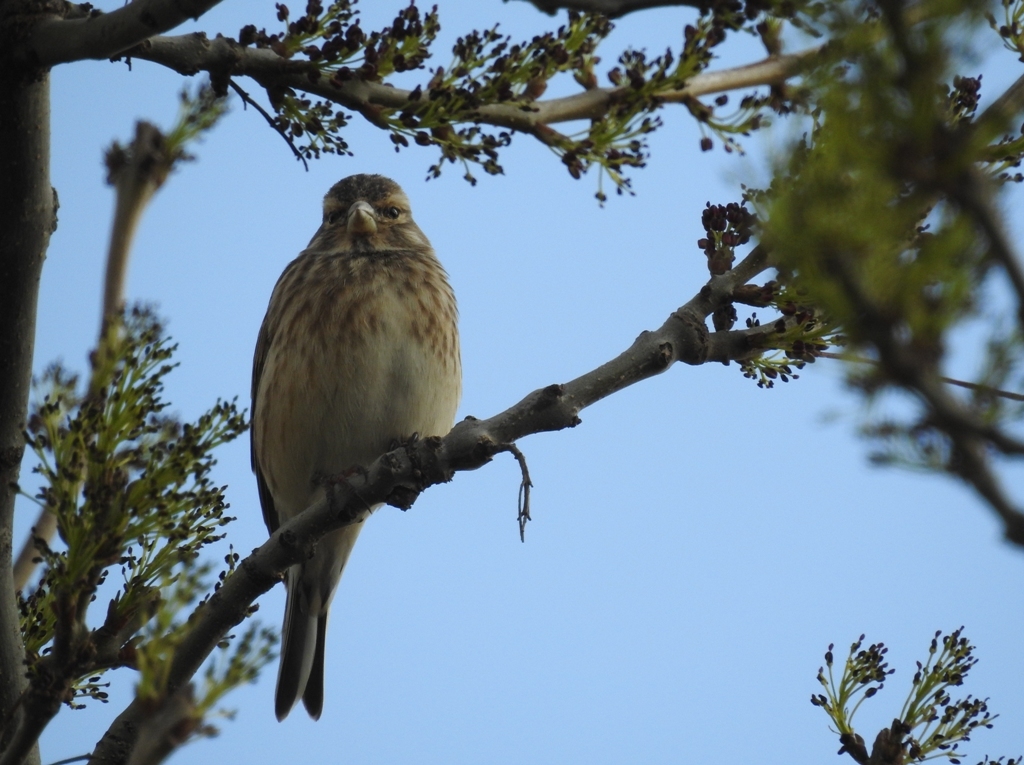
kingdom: Animalia
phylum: Chordata
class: Aves
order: Passeriformes
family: Fringillidae
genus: Linaria
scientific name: Linaria cannabina
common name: Common linnet
